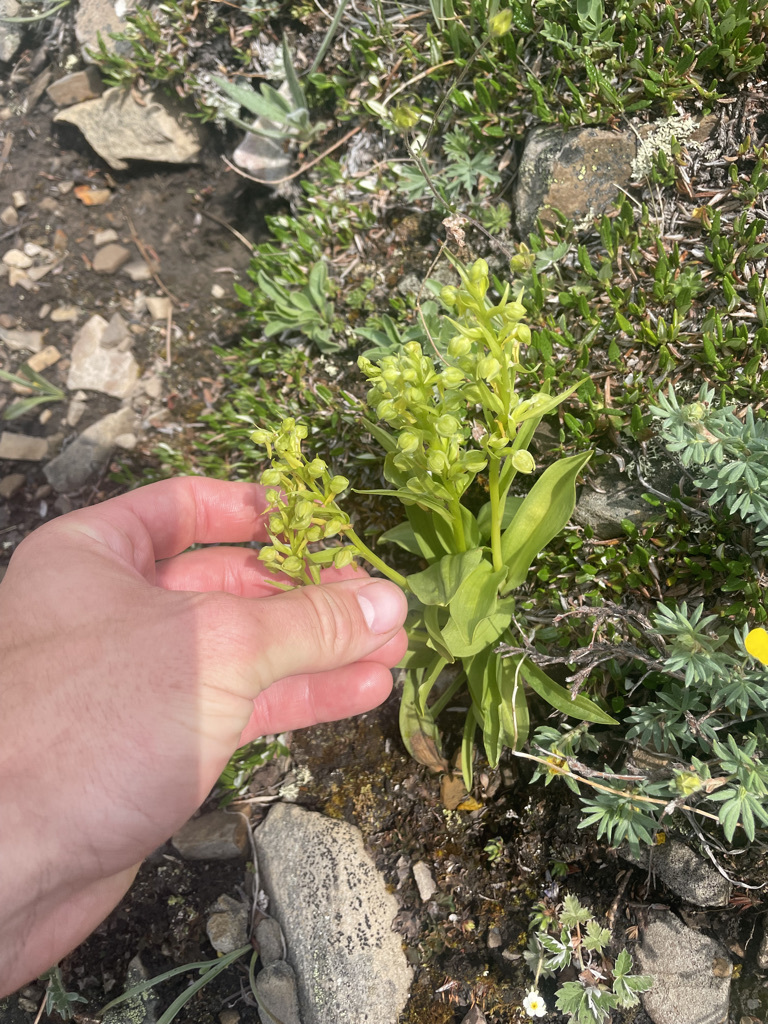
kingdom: Plantae
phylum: Tracheophyta
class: Liliopsida
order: Asparagales
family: Orchidaceae
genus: Dactylorhiza
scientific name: Dactylorhiza viridis
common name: Longbract frog orchid
